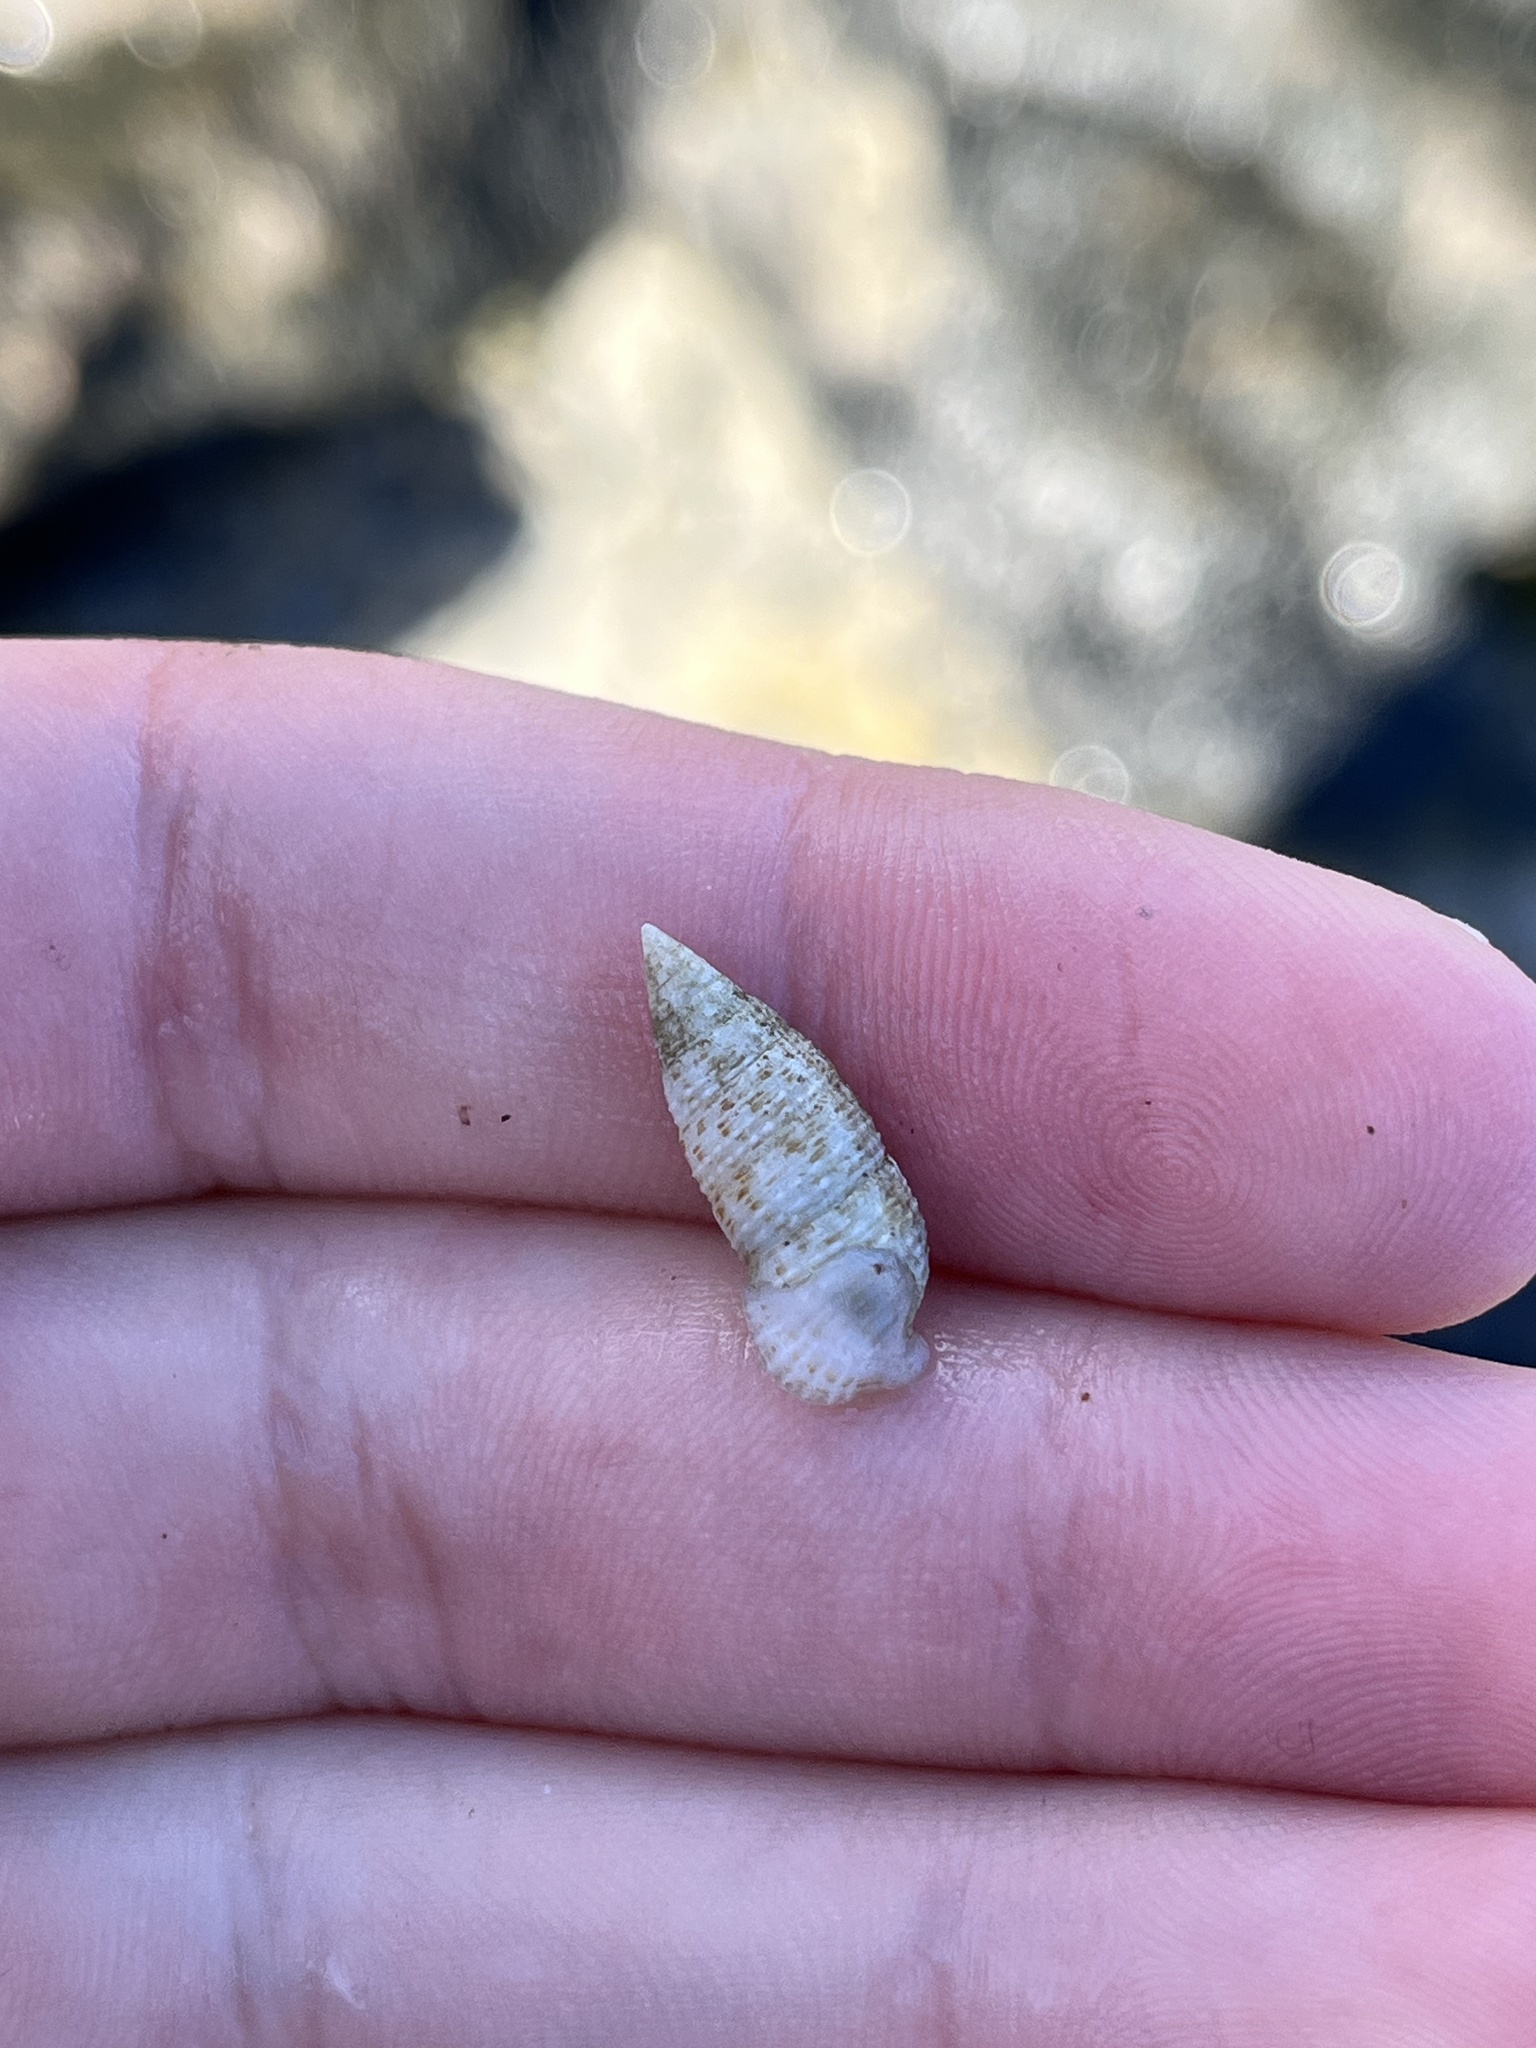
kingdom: Animalia
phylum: Mollusca
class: Gastropoda
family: Cerithiidae
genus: Cerithium
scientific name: Cerithium nesioticum
